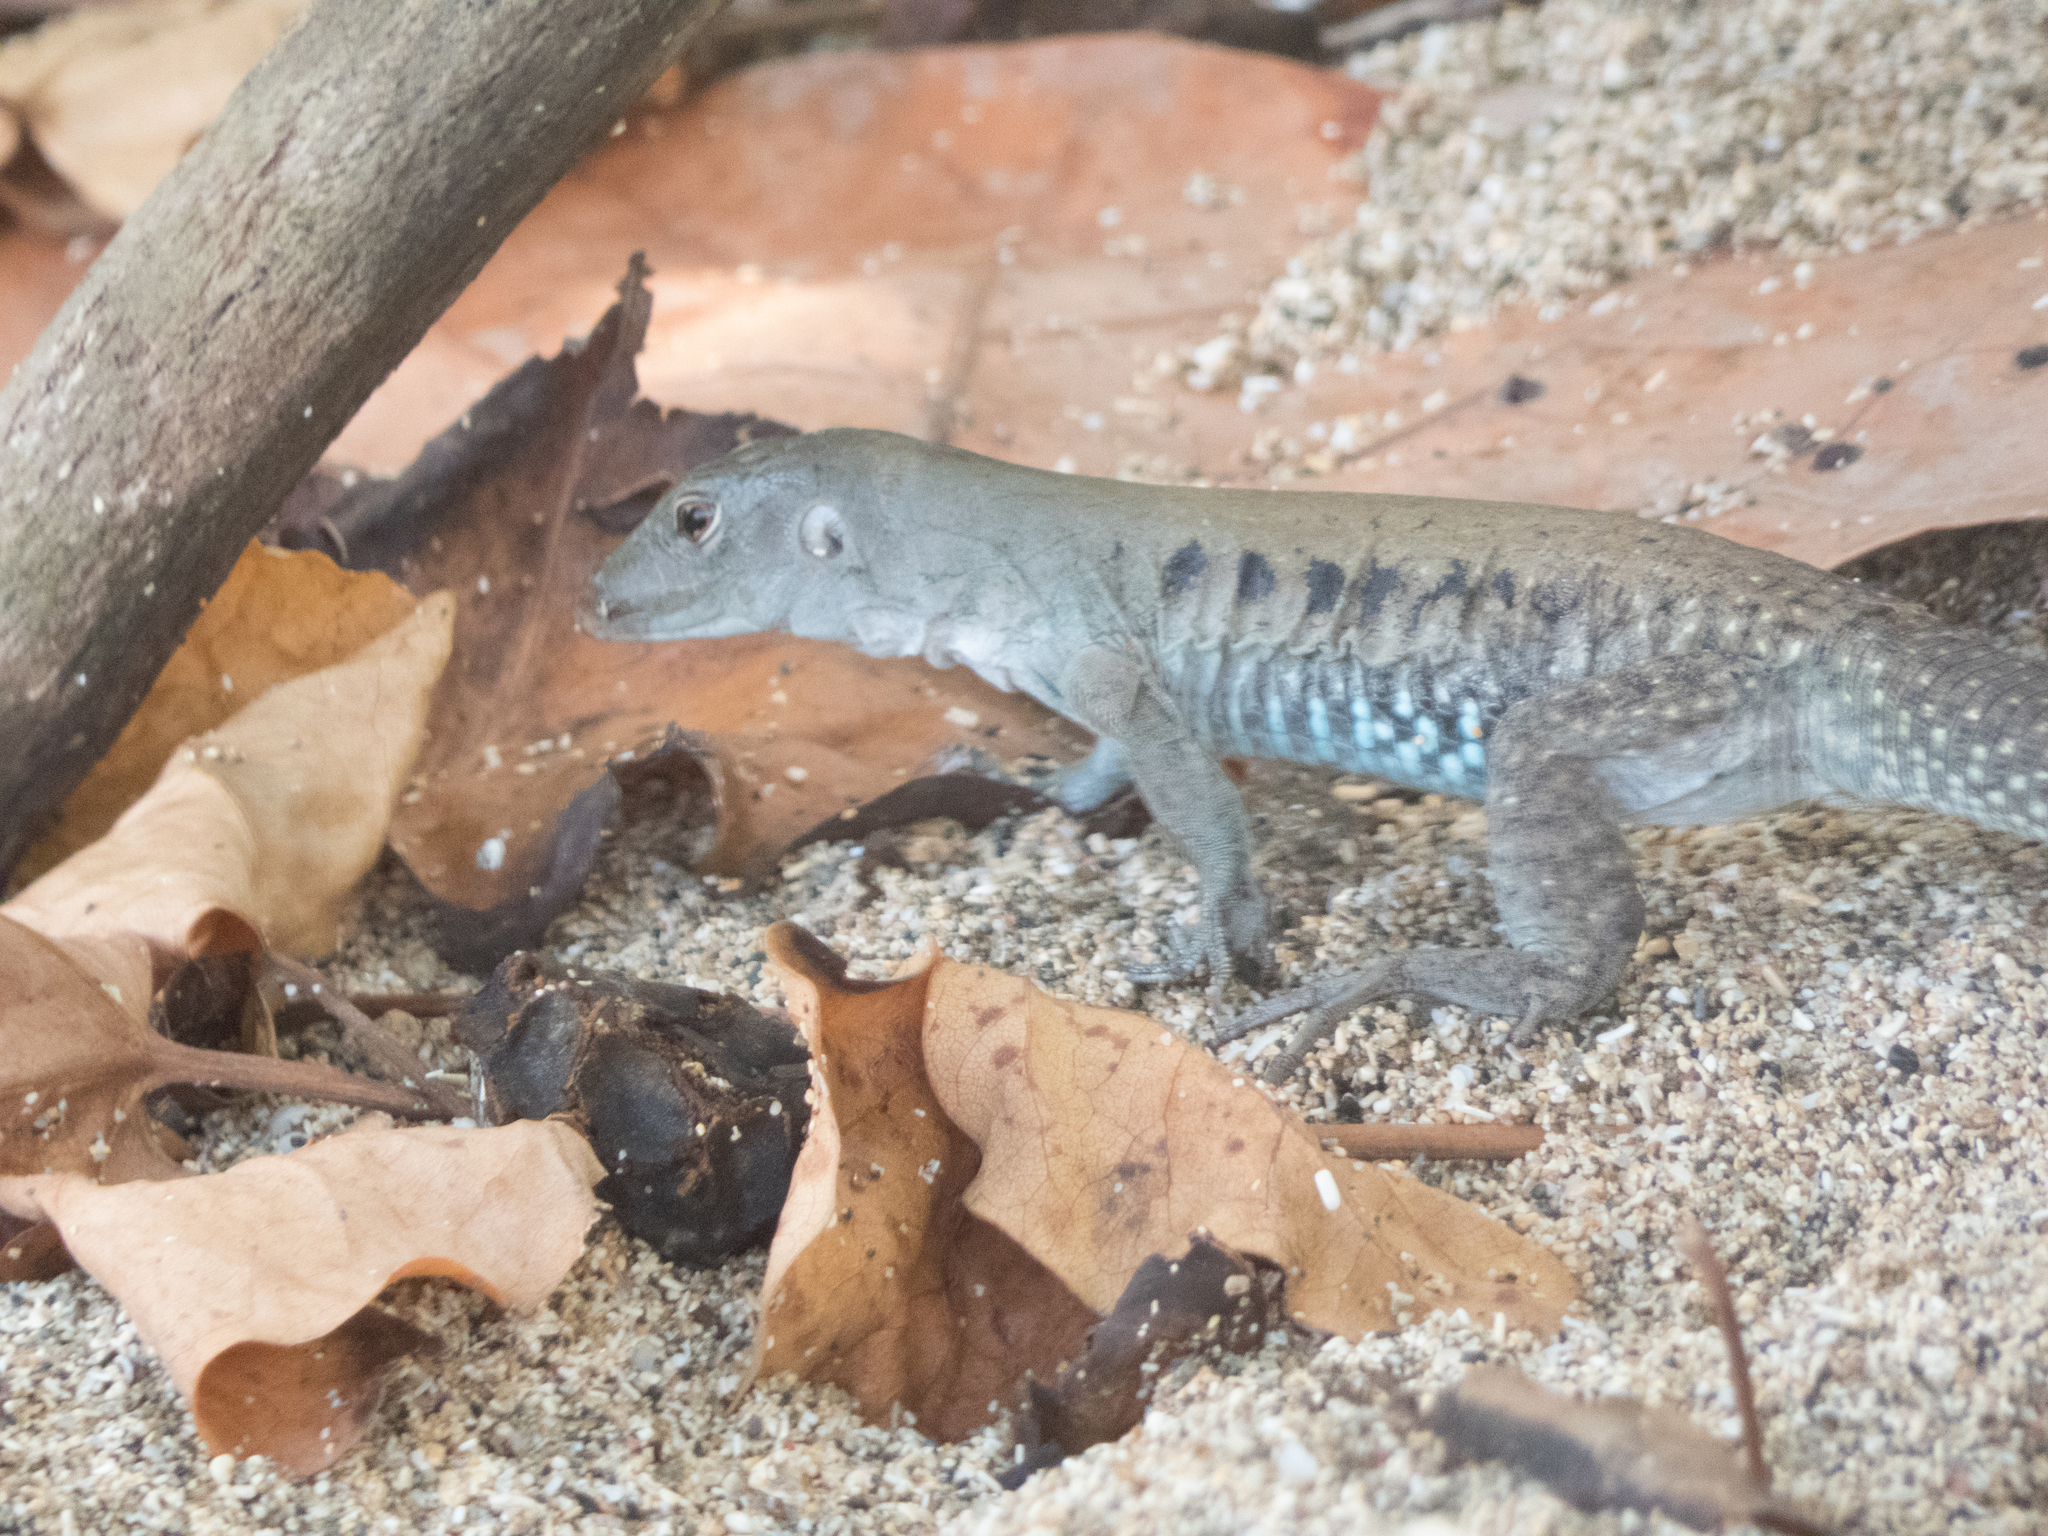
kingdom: Animalia
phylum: Chordata
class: Squamata
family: Teiidae
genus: Pholidoscelis
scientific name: Pholidoscelis exsul
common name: Common puerto rican ameiva
